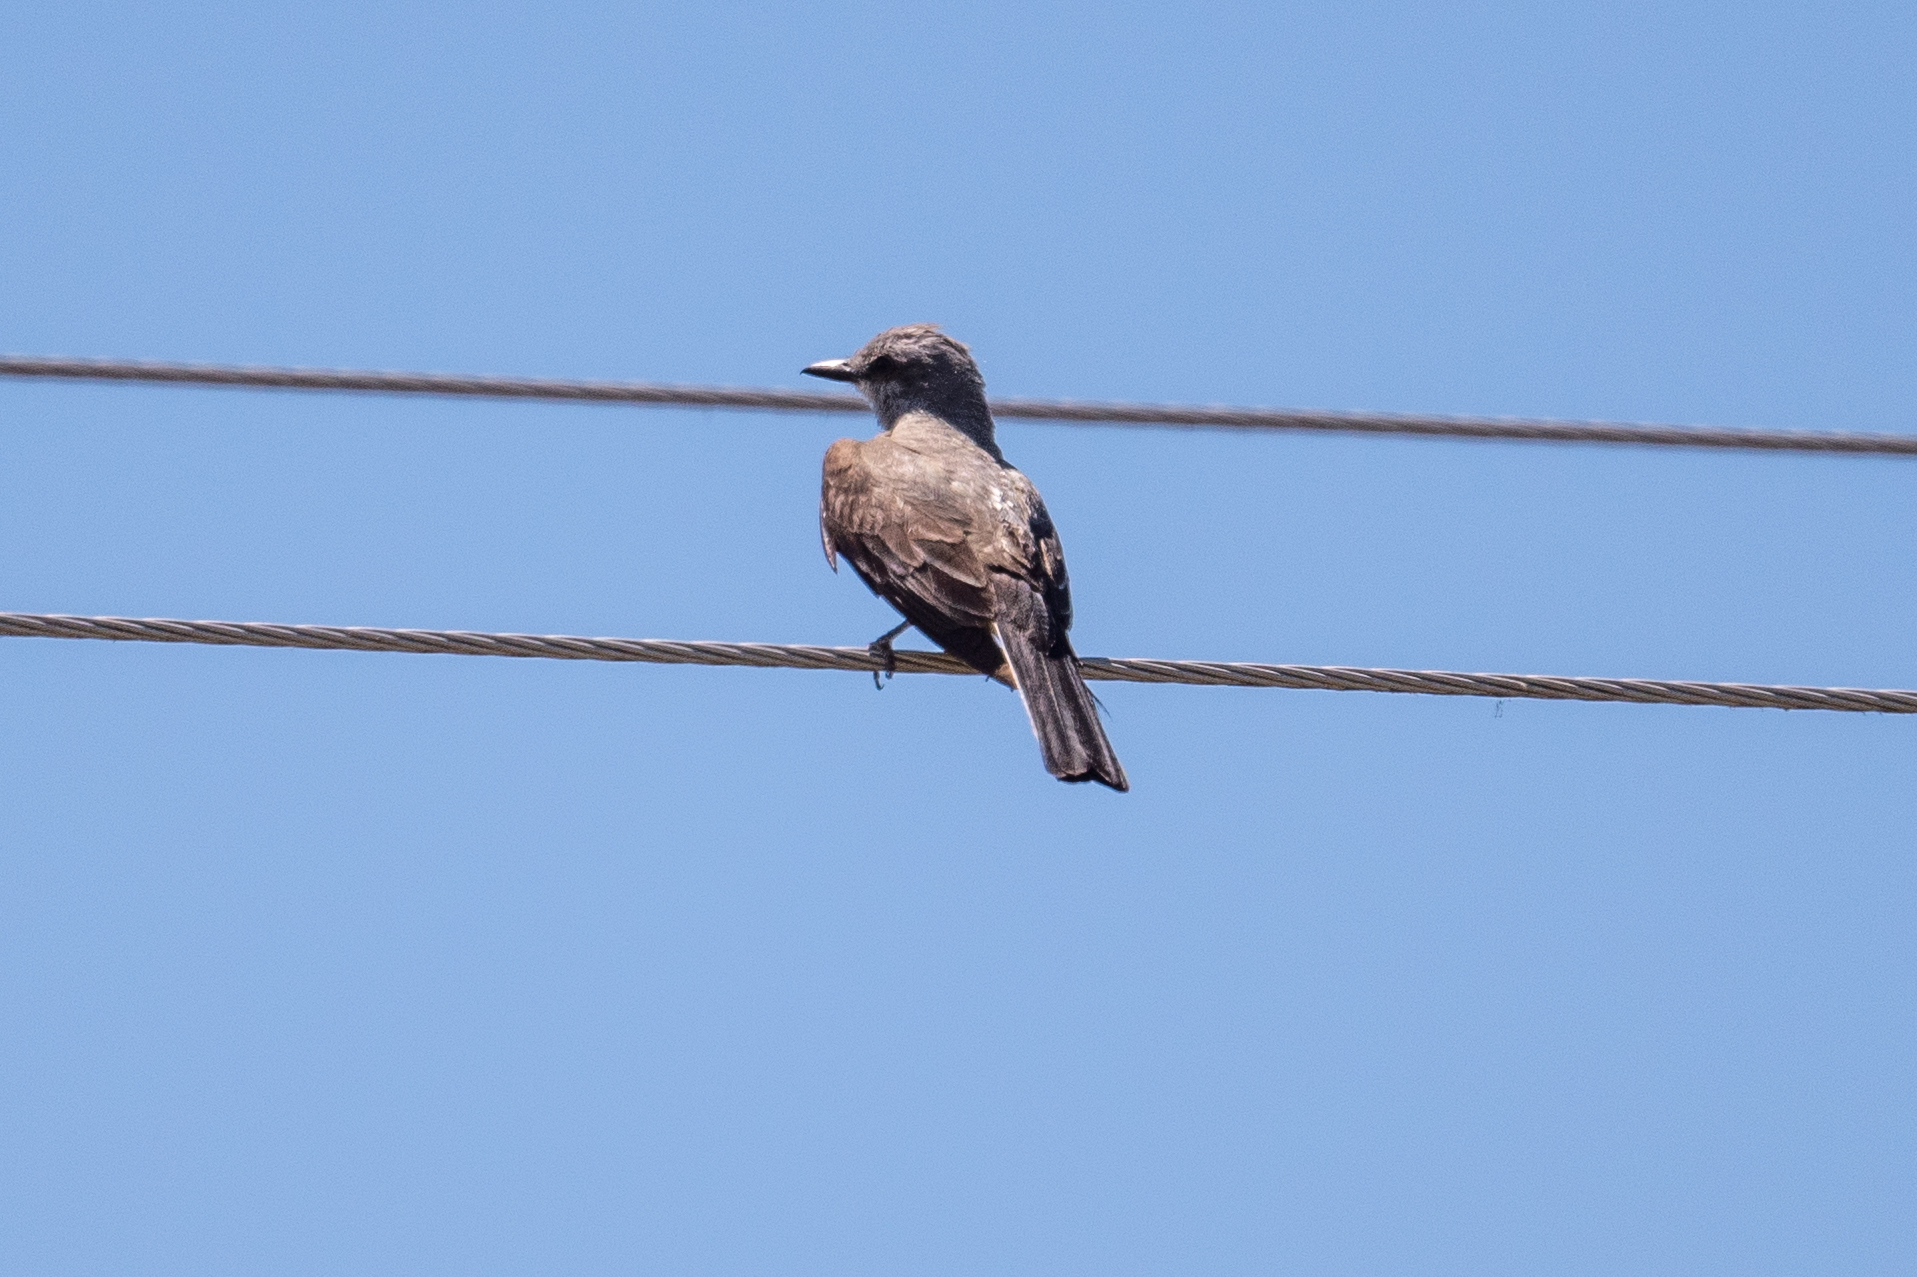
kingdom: Animalia
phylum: Chordata
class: Aves
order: Passeriformes
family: Tyrannidae
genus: Tyrannus
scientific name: Tyrannus verticalis
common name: Western kingbird
